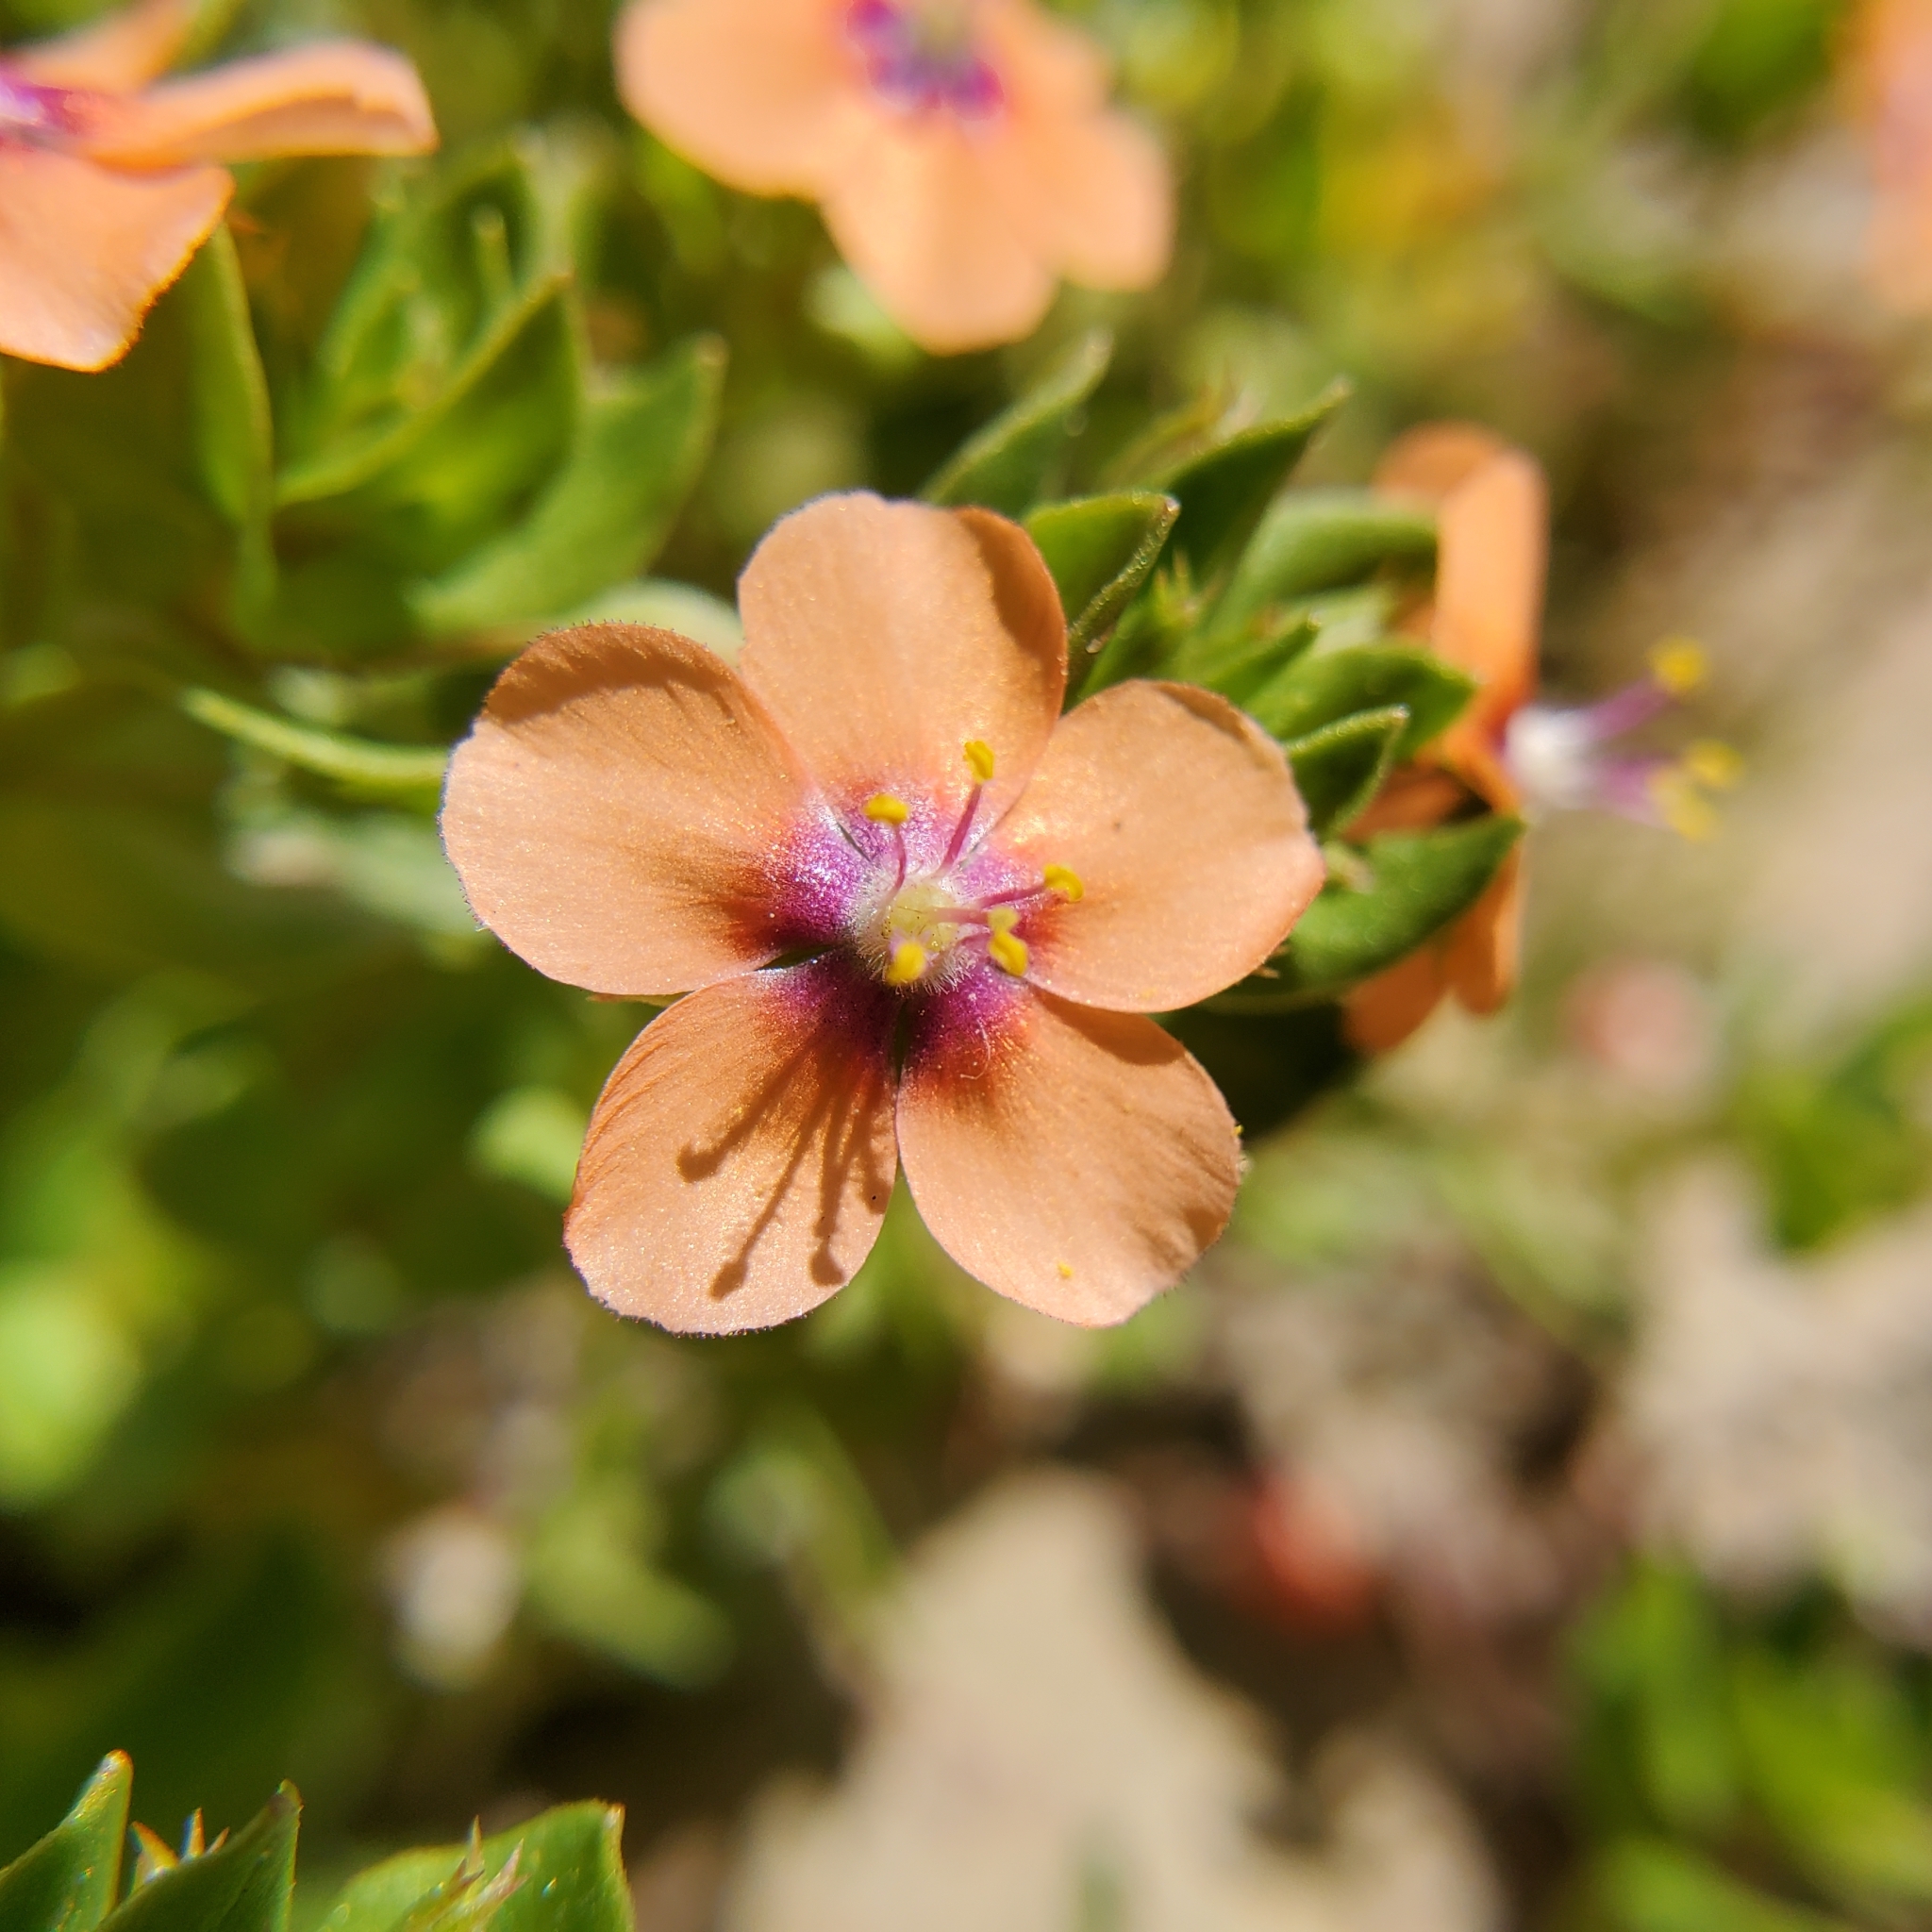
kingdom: Plantae
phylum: Tracheophyta
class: Magnoliopsida
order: Ericales
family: Primulaceae
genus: Lysimachia
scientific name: Lysimachia arvensis
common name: Scarlet pimpernel
